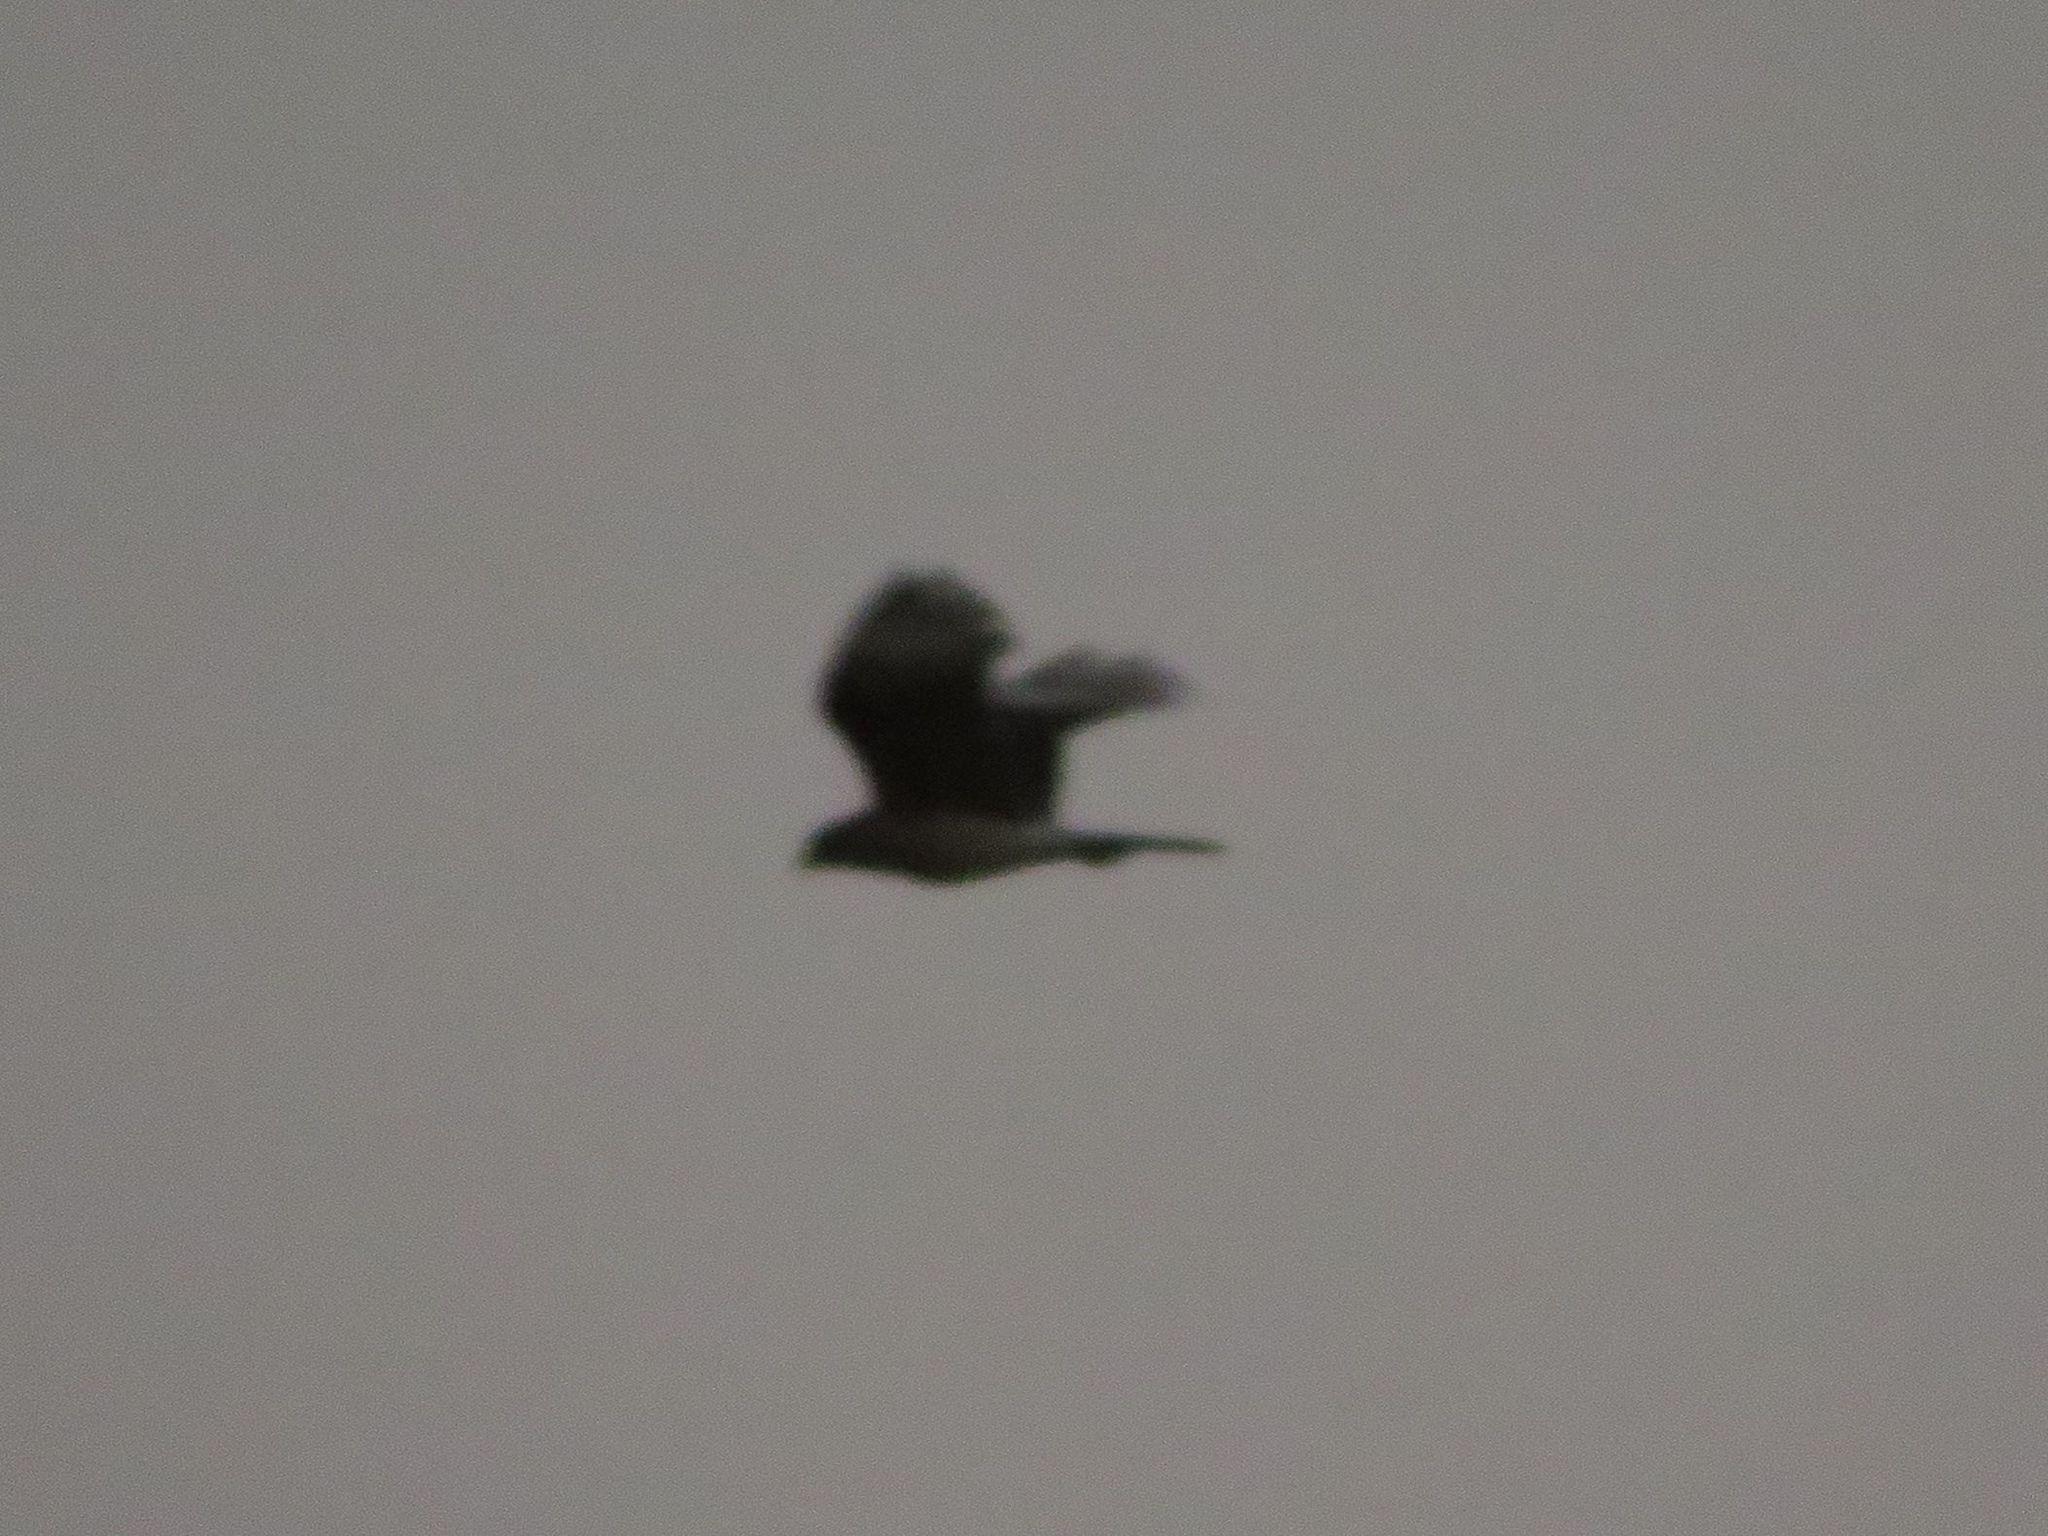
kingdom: Animalia
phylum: Chordata
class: Aves
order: Falconiformes
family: Falconidae
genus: Daptrius
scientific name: Daptrius
